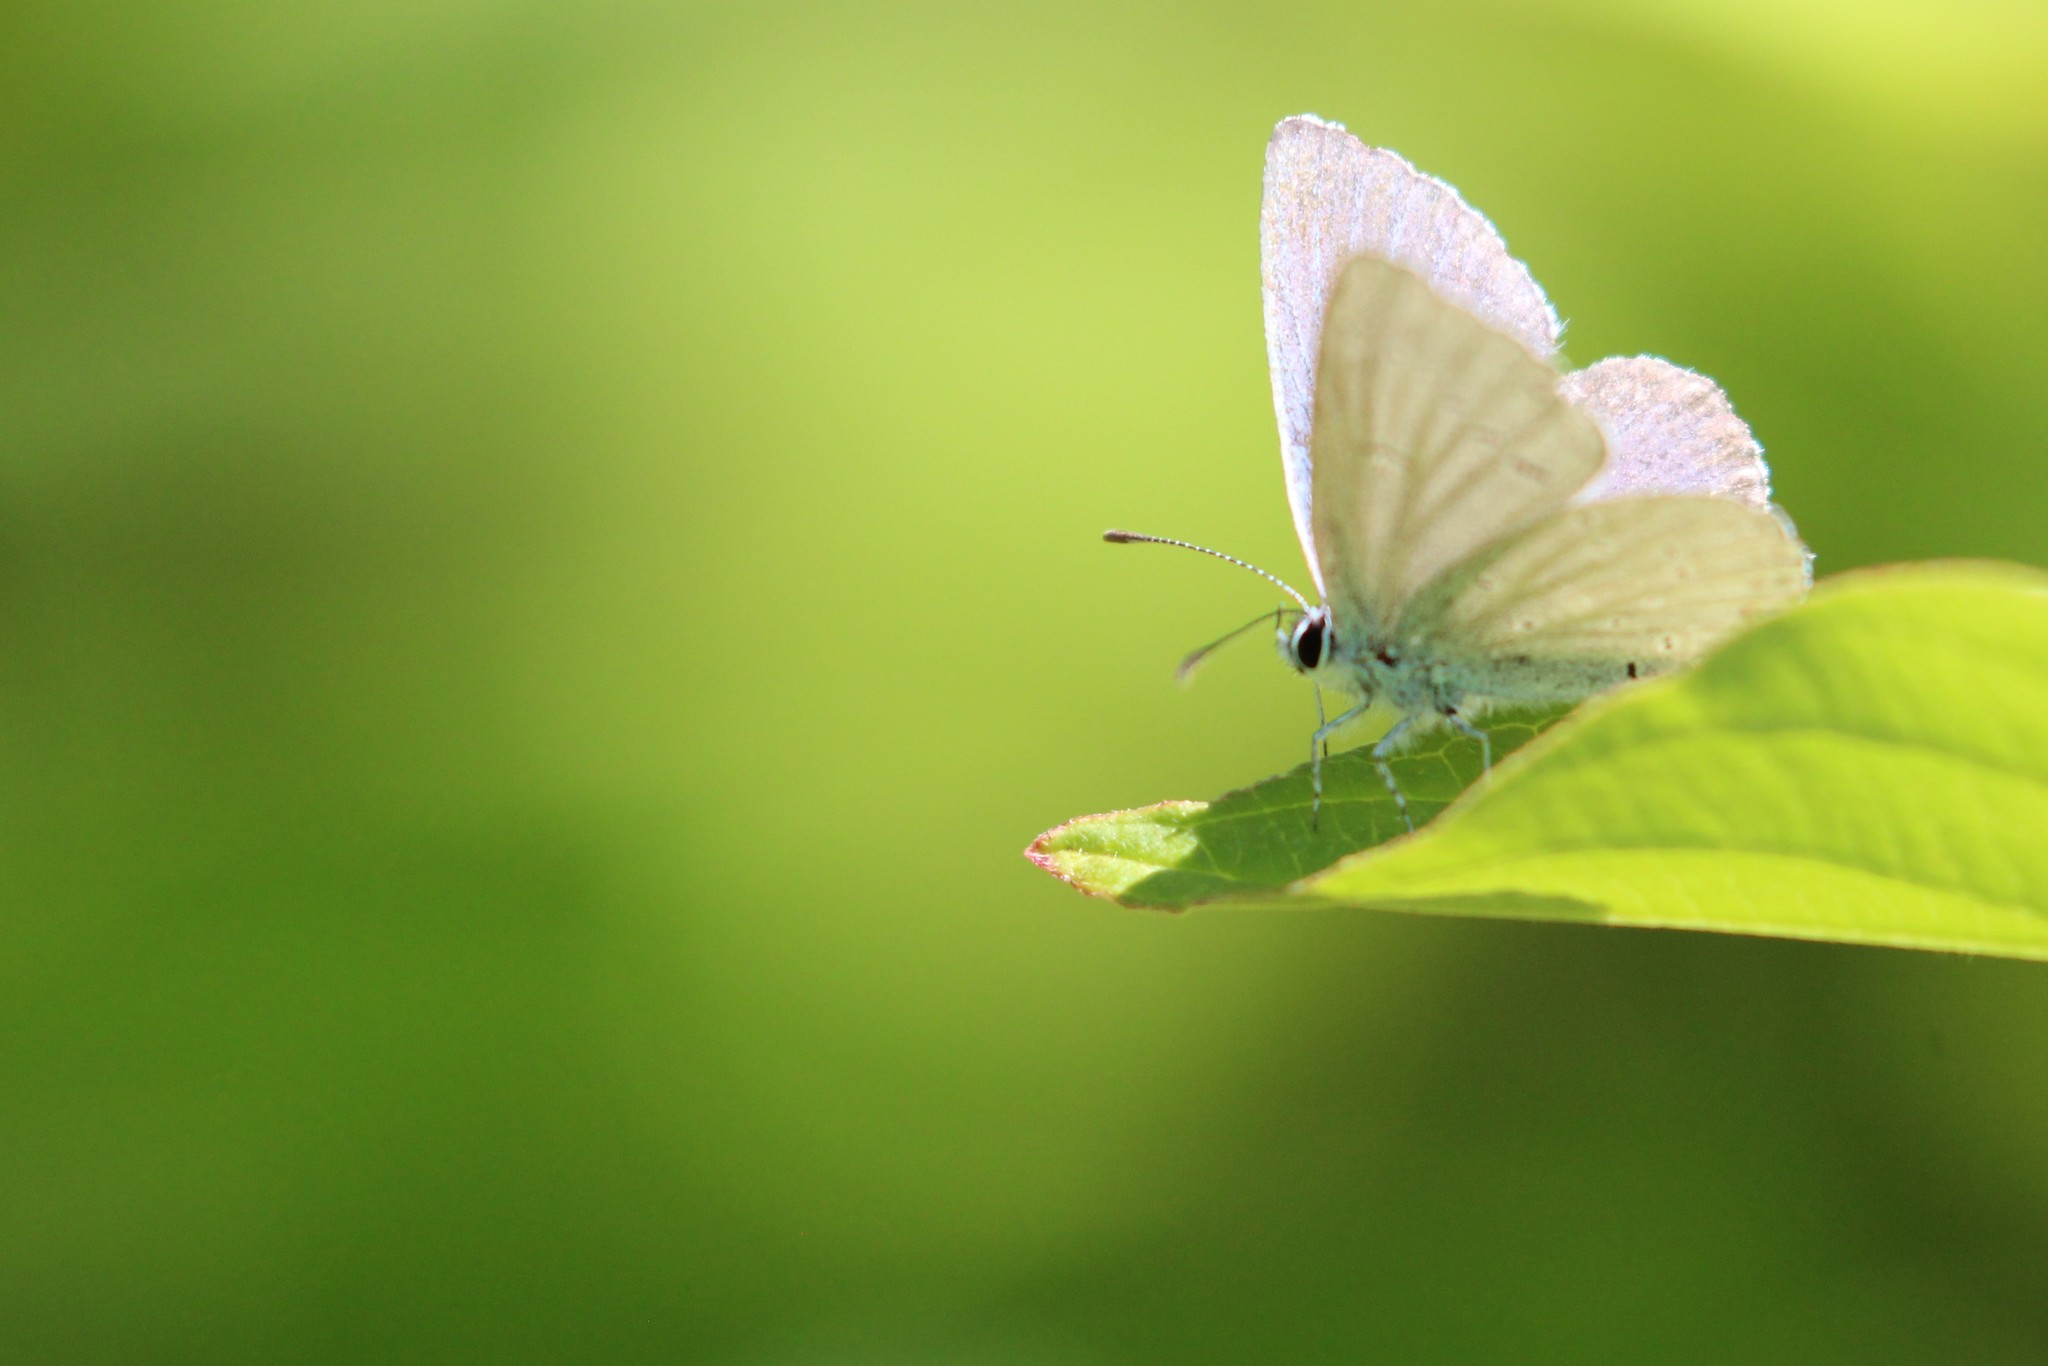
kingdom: Animalia
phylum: Arthropoda
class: Insecta
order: Lepidoptera
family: Lycaenidae
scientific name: Lycaenidae
